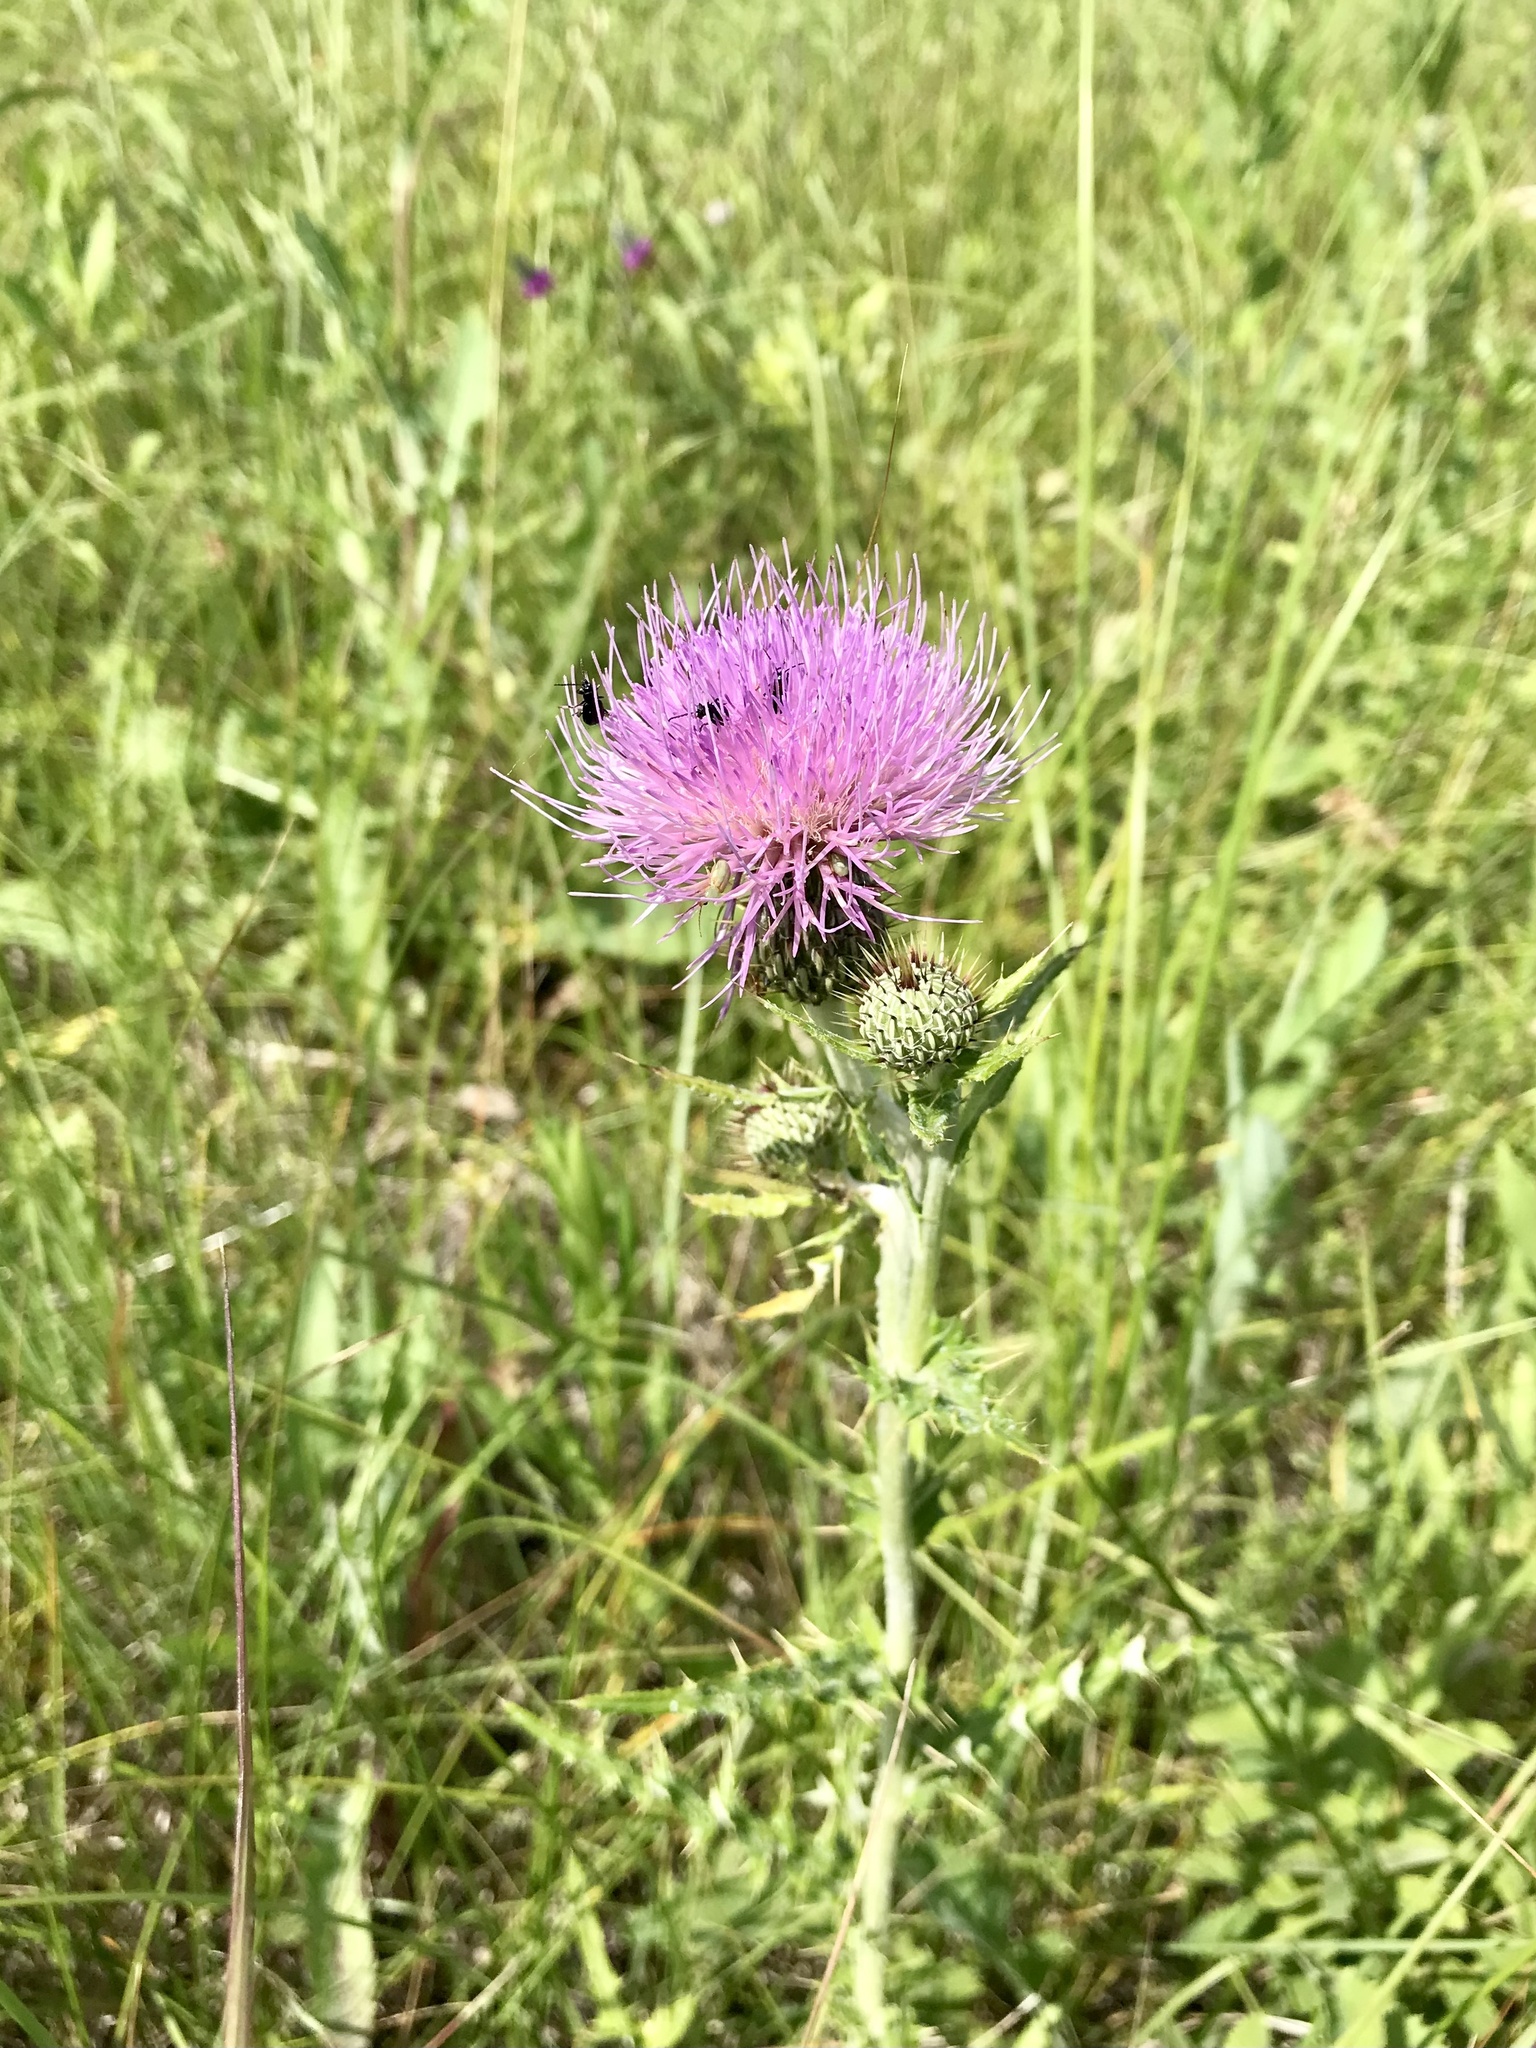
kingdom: Plantae
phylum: Tracheophyta
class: Magnoliopsida
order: Asterales
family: Asteraceae
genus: Cirsium
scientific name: Cirsium flodmanii
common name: Flodman's thistle
